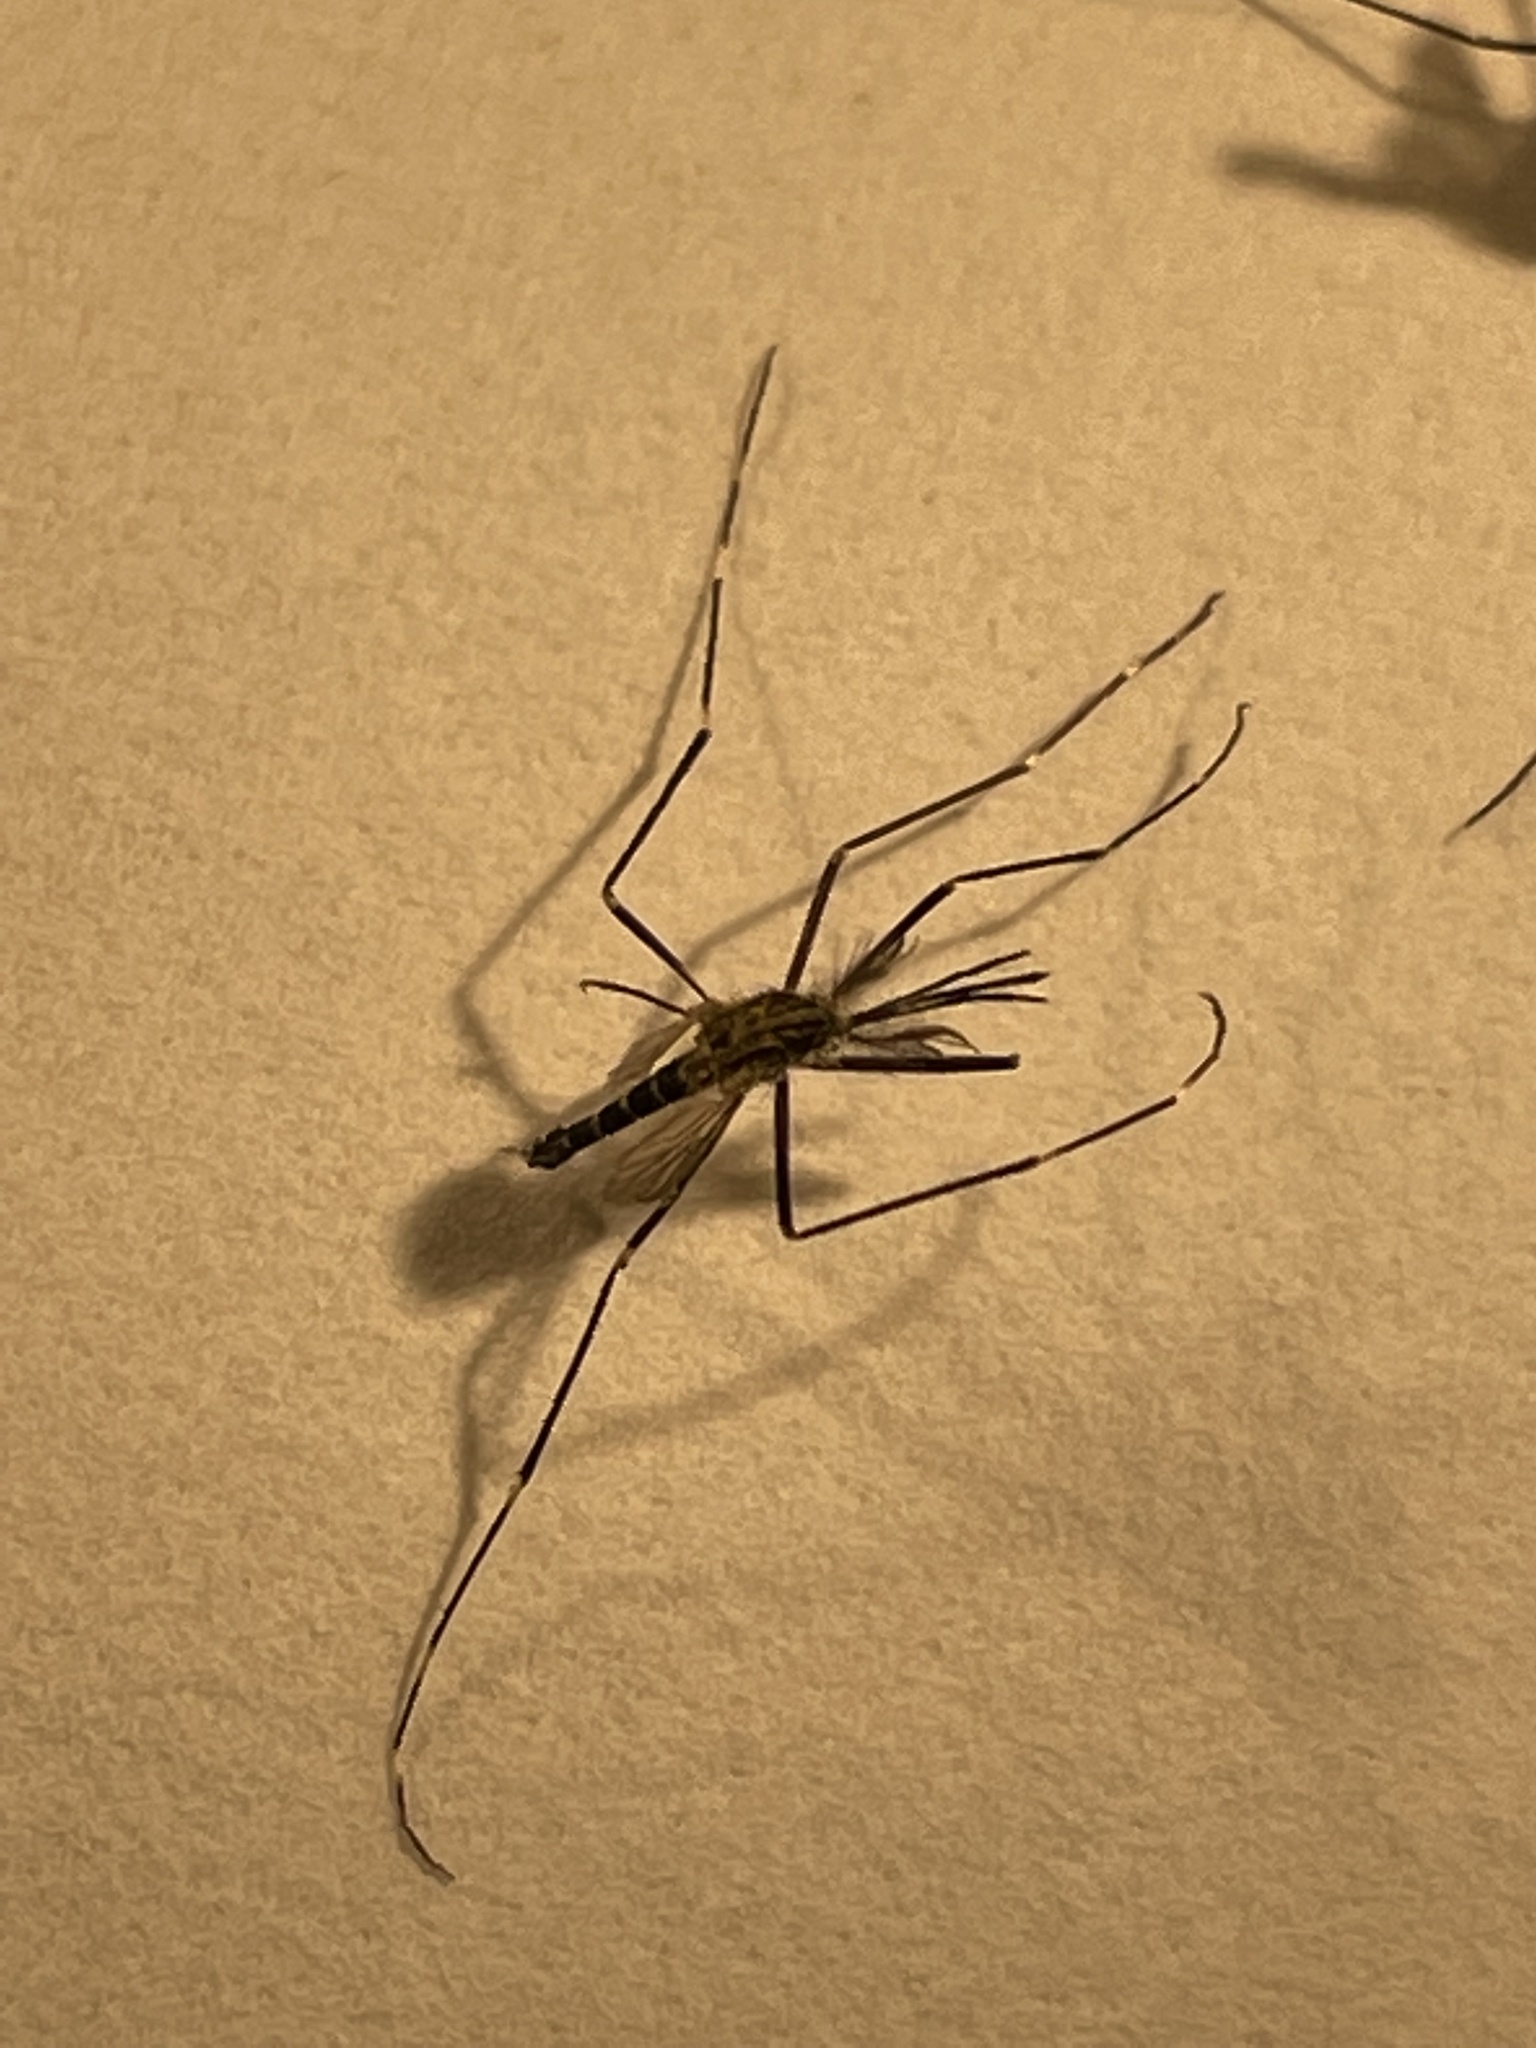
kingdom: Animalia
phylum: Arthropoda
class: Insecta
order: Diptera
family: Culicidae
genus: Aedes
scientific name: Aedes japonicus
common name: Asian bush mosquito
